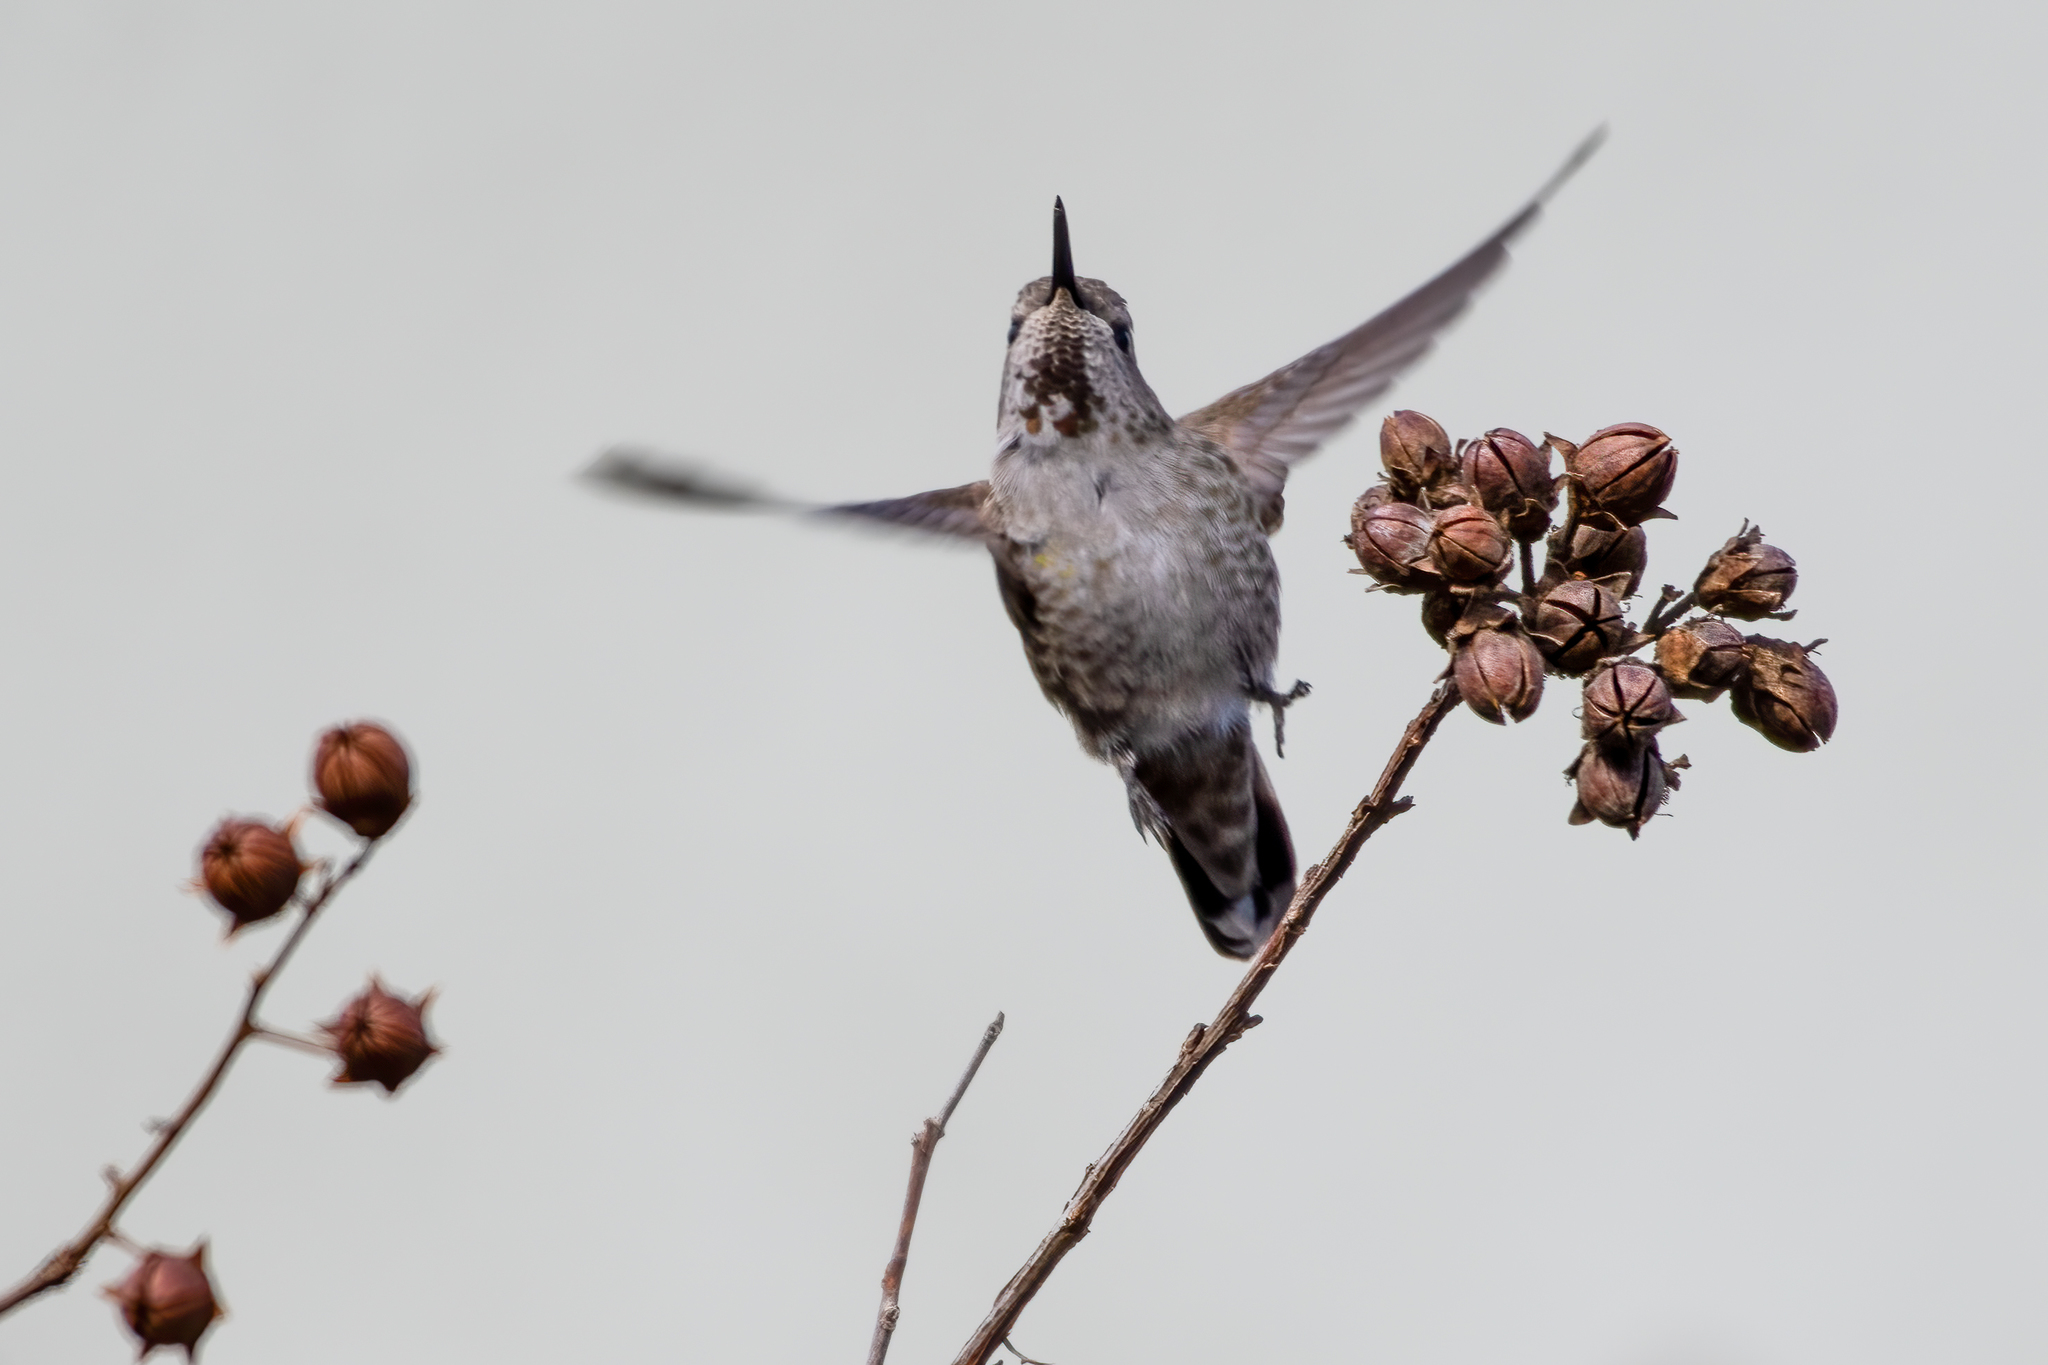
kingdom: Animalia
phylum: Chordata
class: Aves
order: Apodiformes
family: Trochilidae
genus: Calypte
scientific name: Calypte anna
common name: Anna's hummingbird
